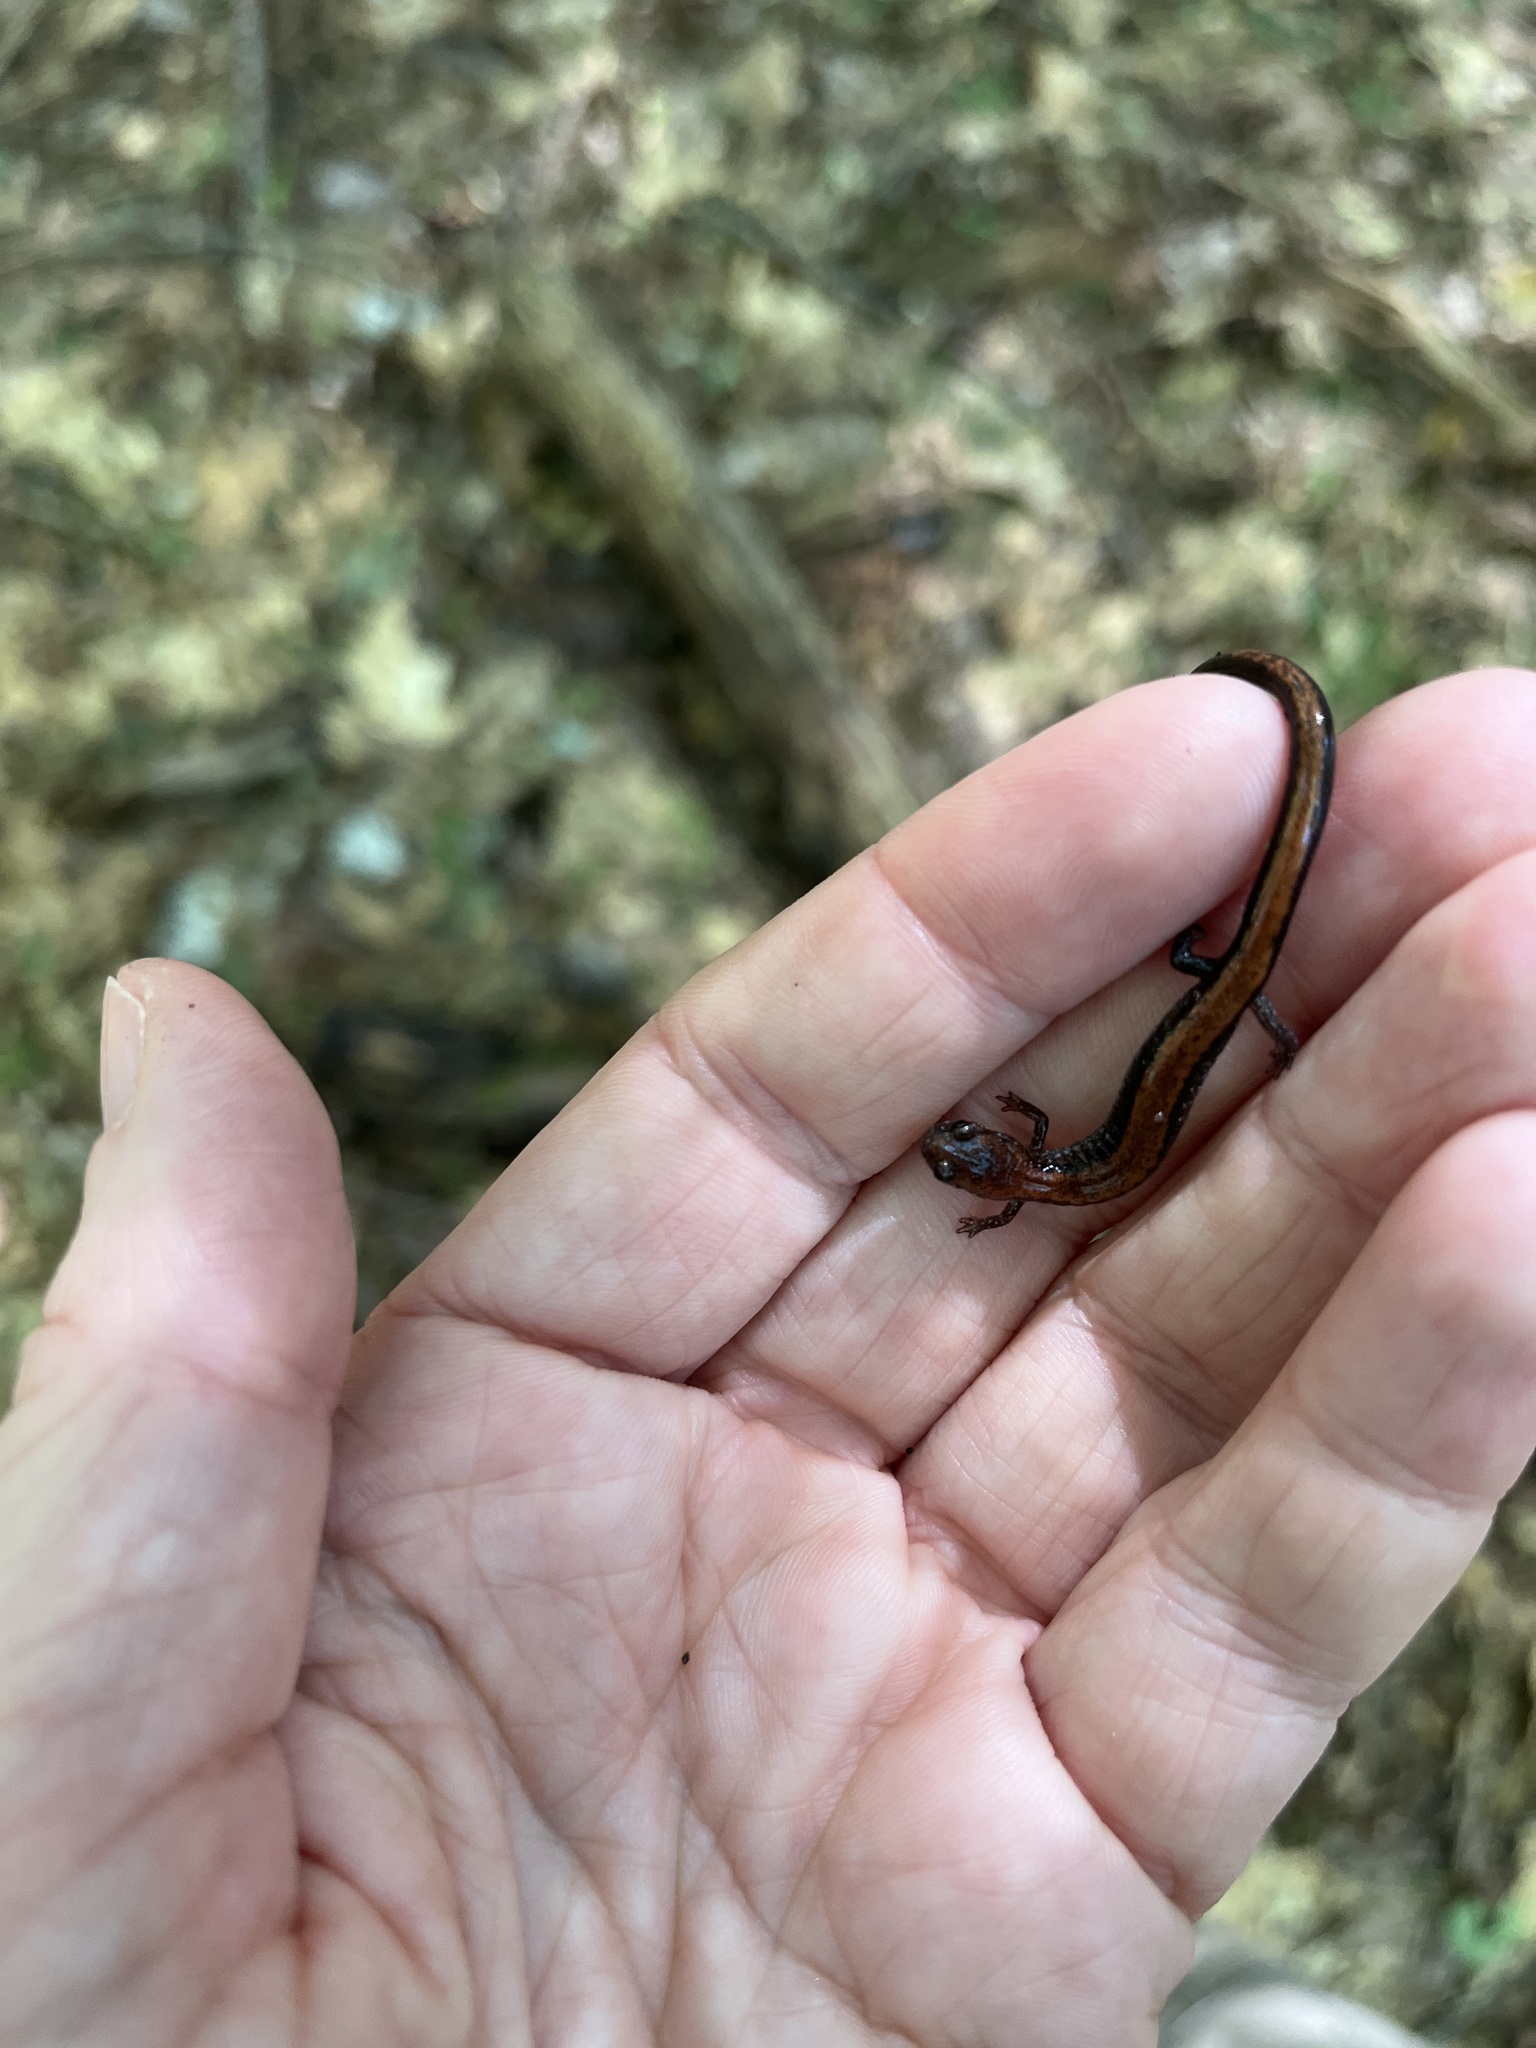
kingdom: Animalia
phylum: Chordata
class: Amphibia
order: Caudata
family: Plethodontidae
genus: Plethodon
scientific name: Plethodon cinereus
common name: Redback salamander
